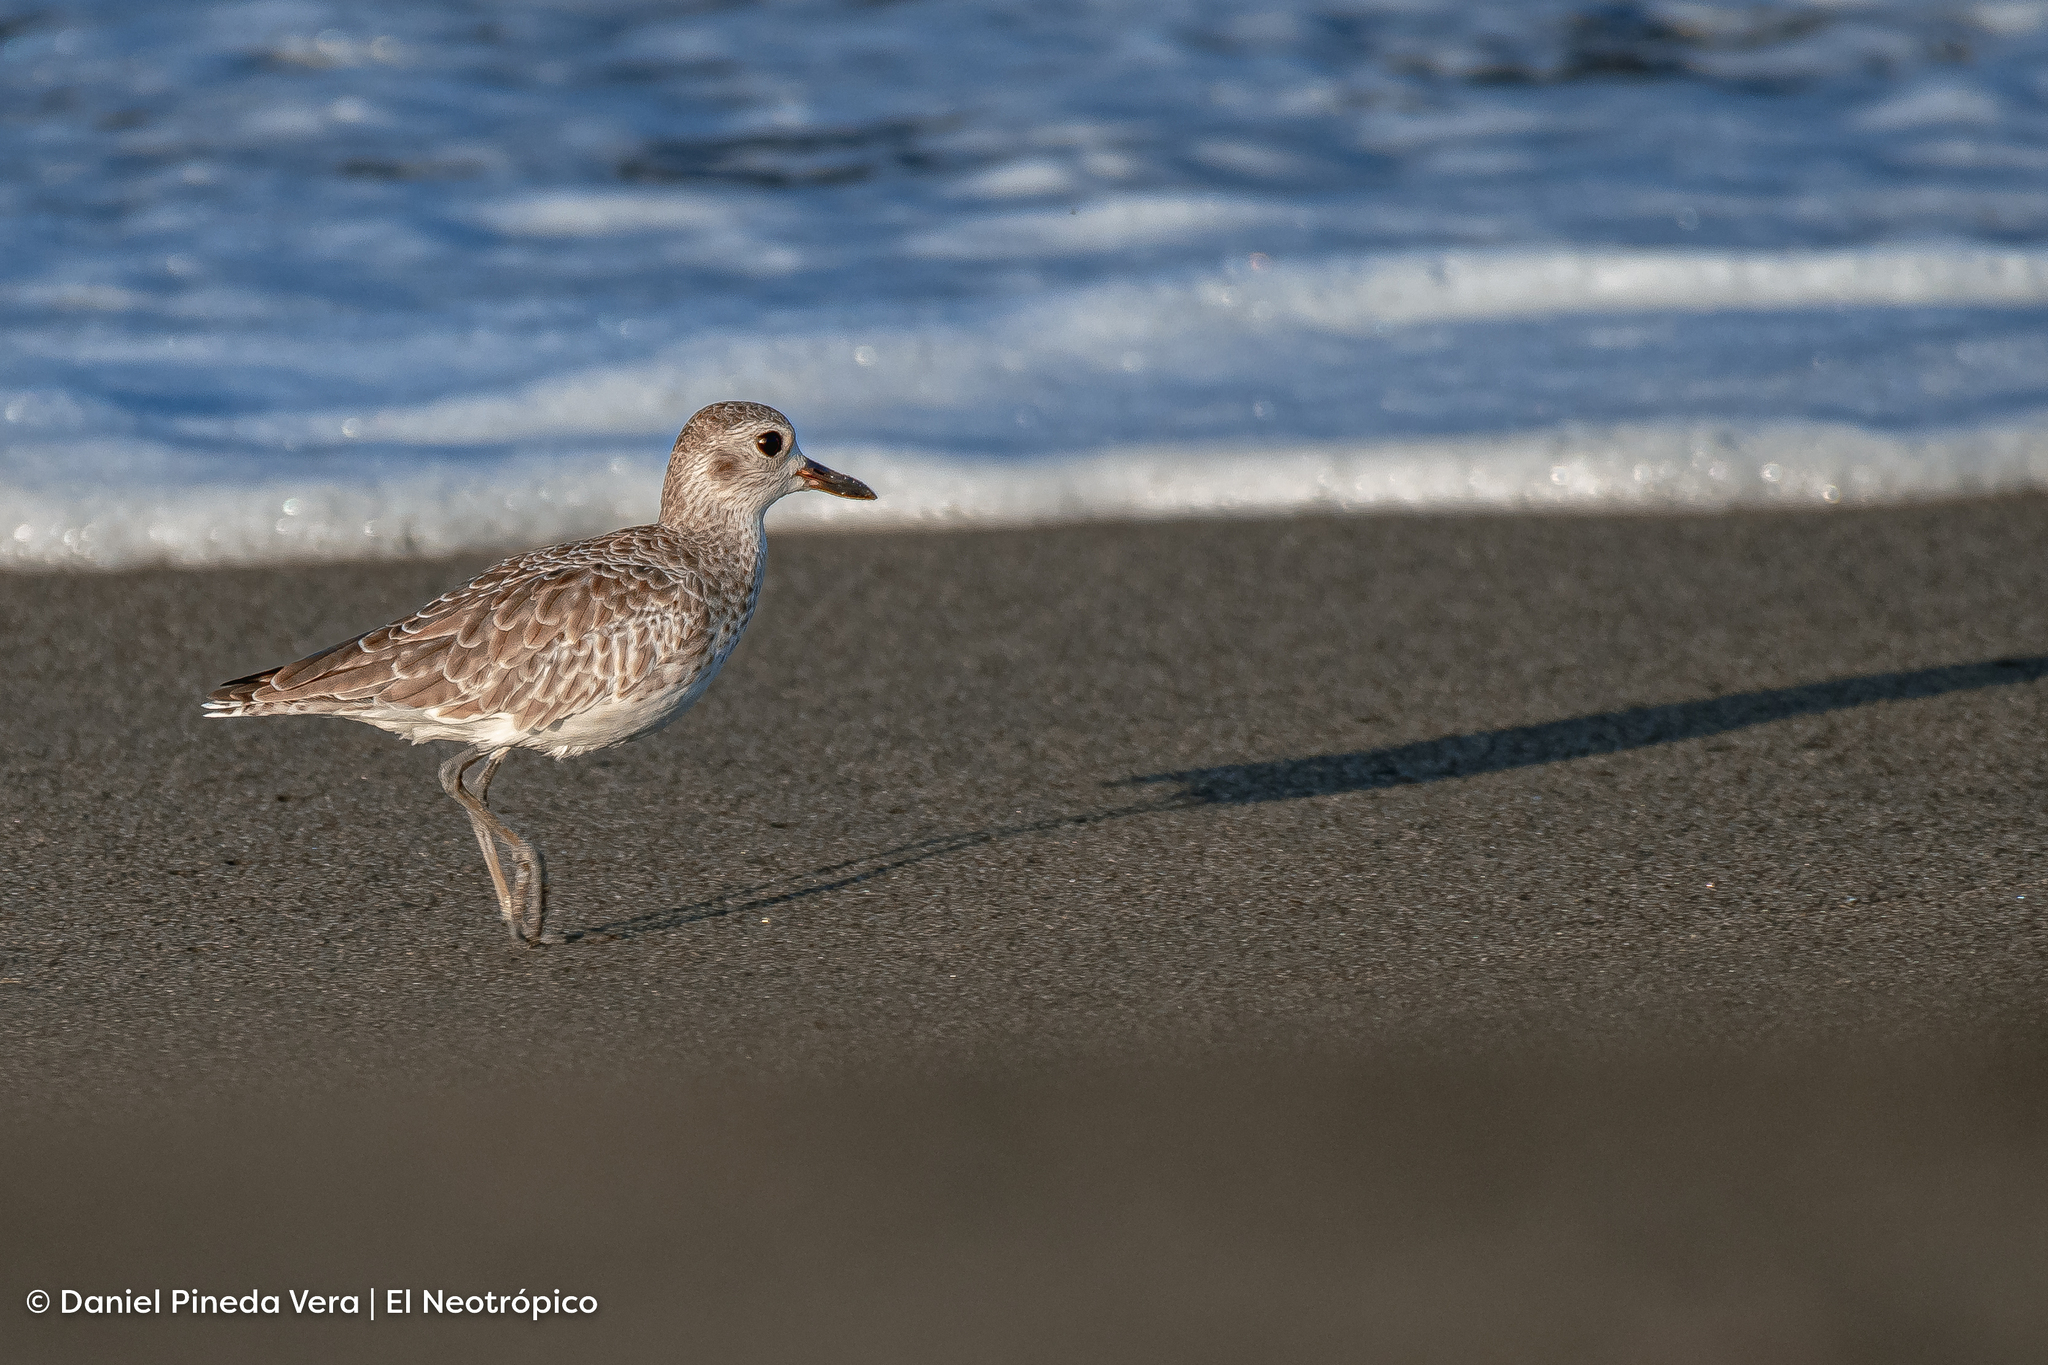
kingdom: Animalia
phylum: Chordata
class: Aves
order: Charadriiformes
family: Charadriidae
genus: Pluvialis
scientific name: Pluvialis squatarola
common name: Grey plover
